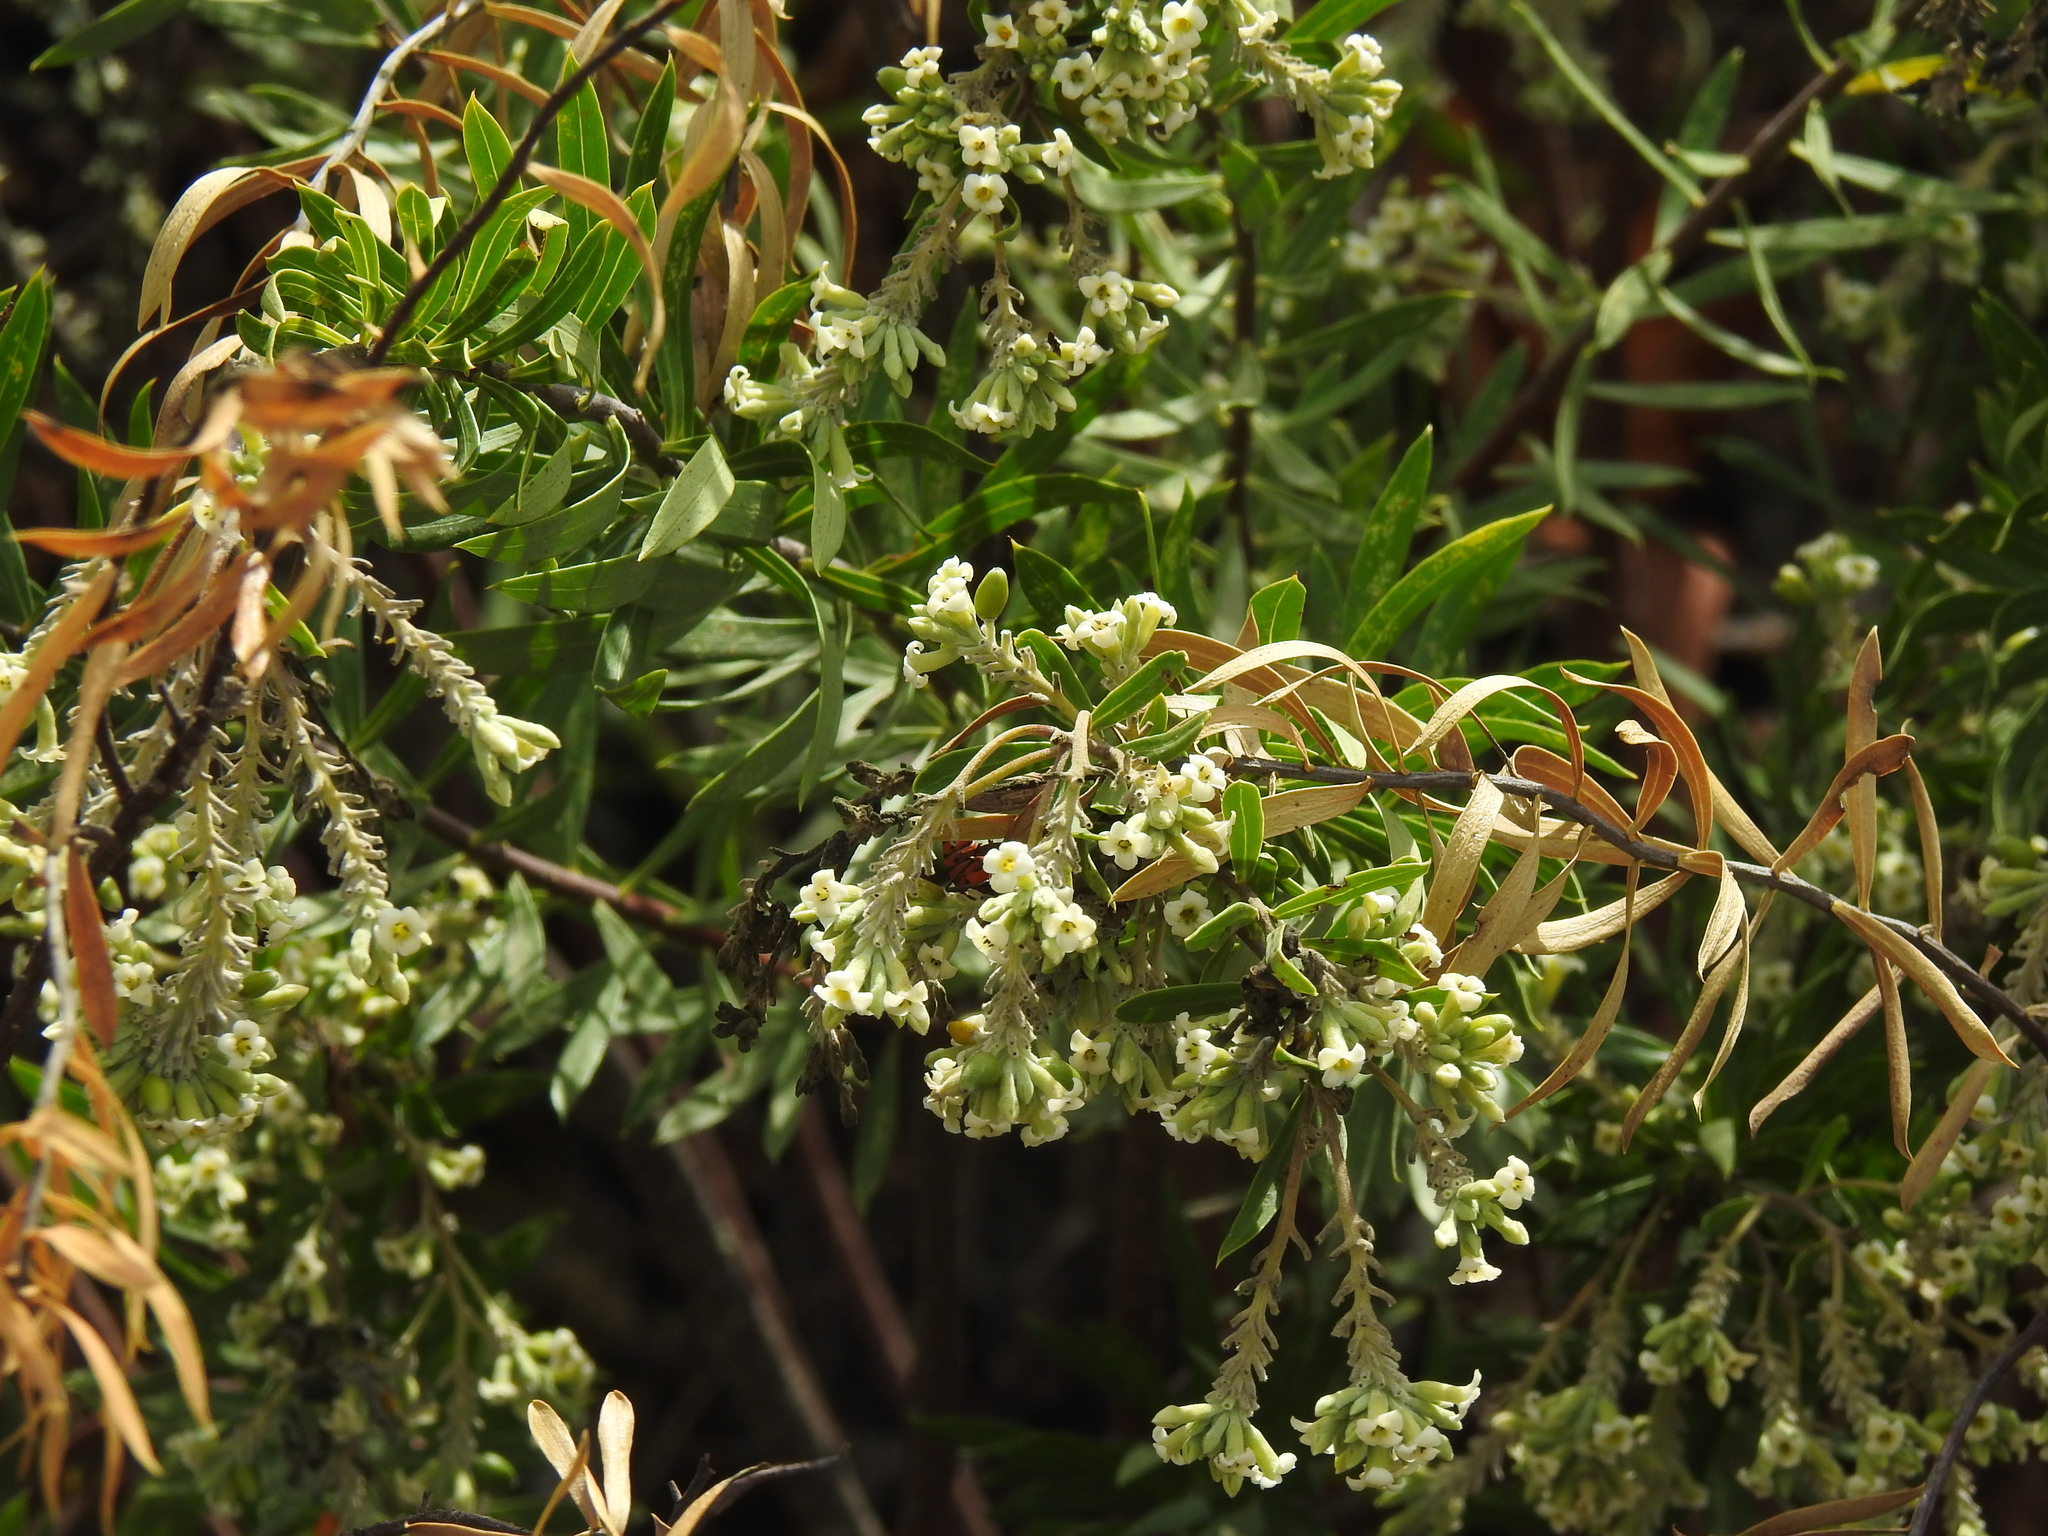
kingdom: Plantae
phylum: Tracheophyta
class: Magnoliopsida
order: Malvales
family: Thymelaeaceae
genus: Daphne
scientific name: Daphne gnidium
